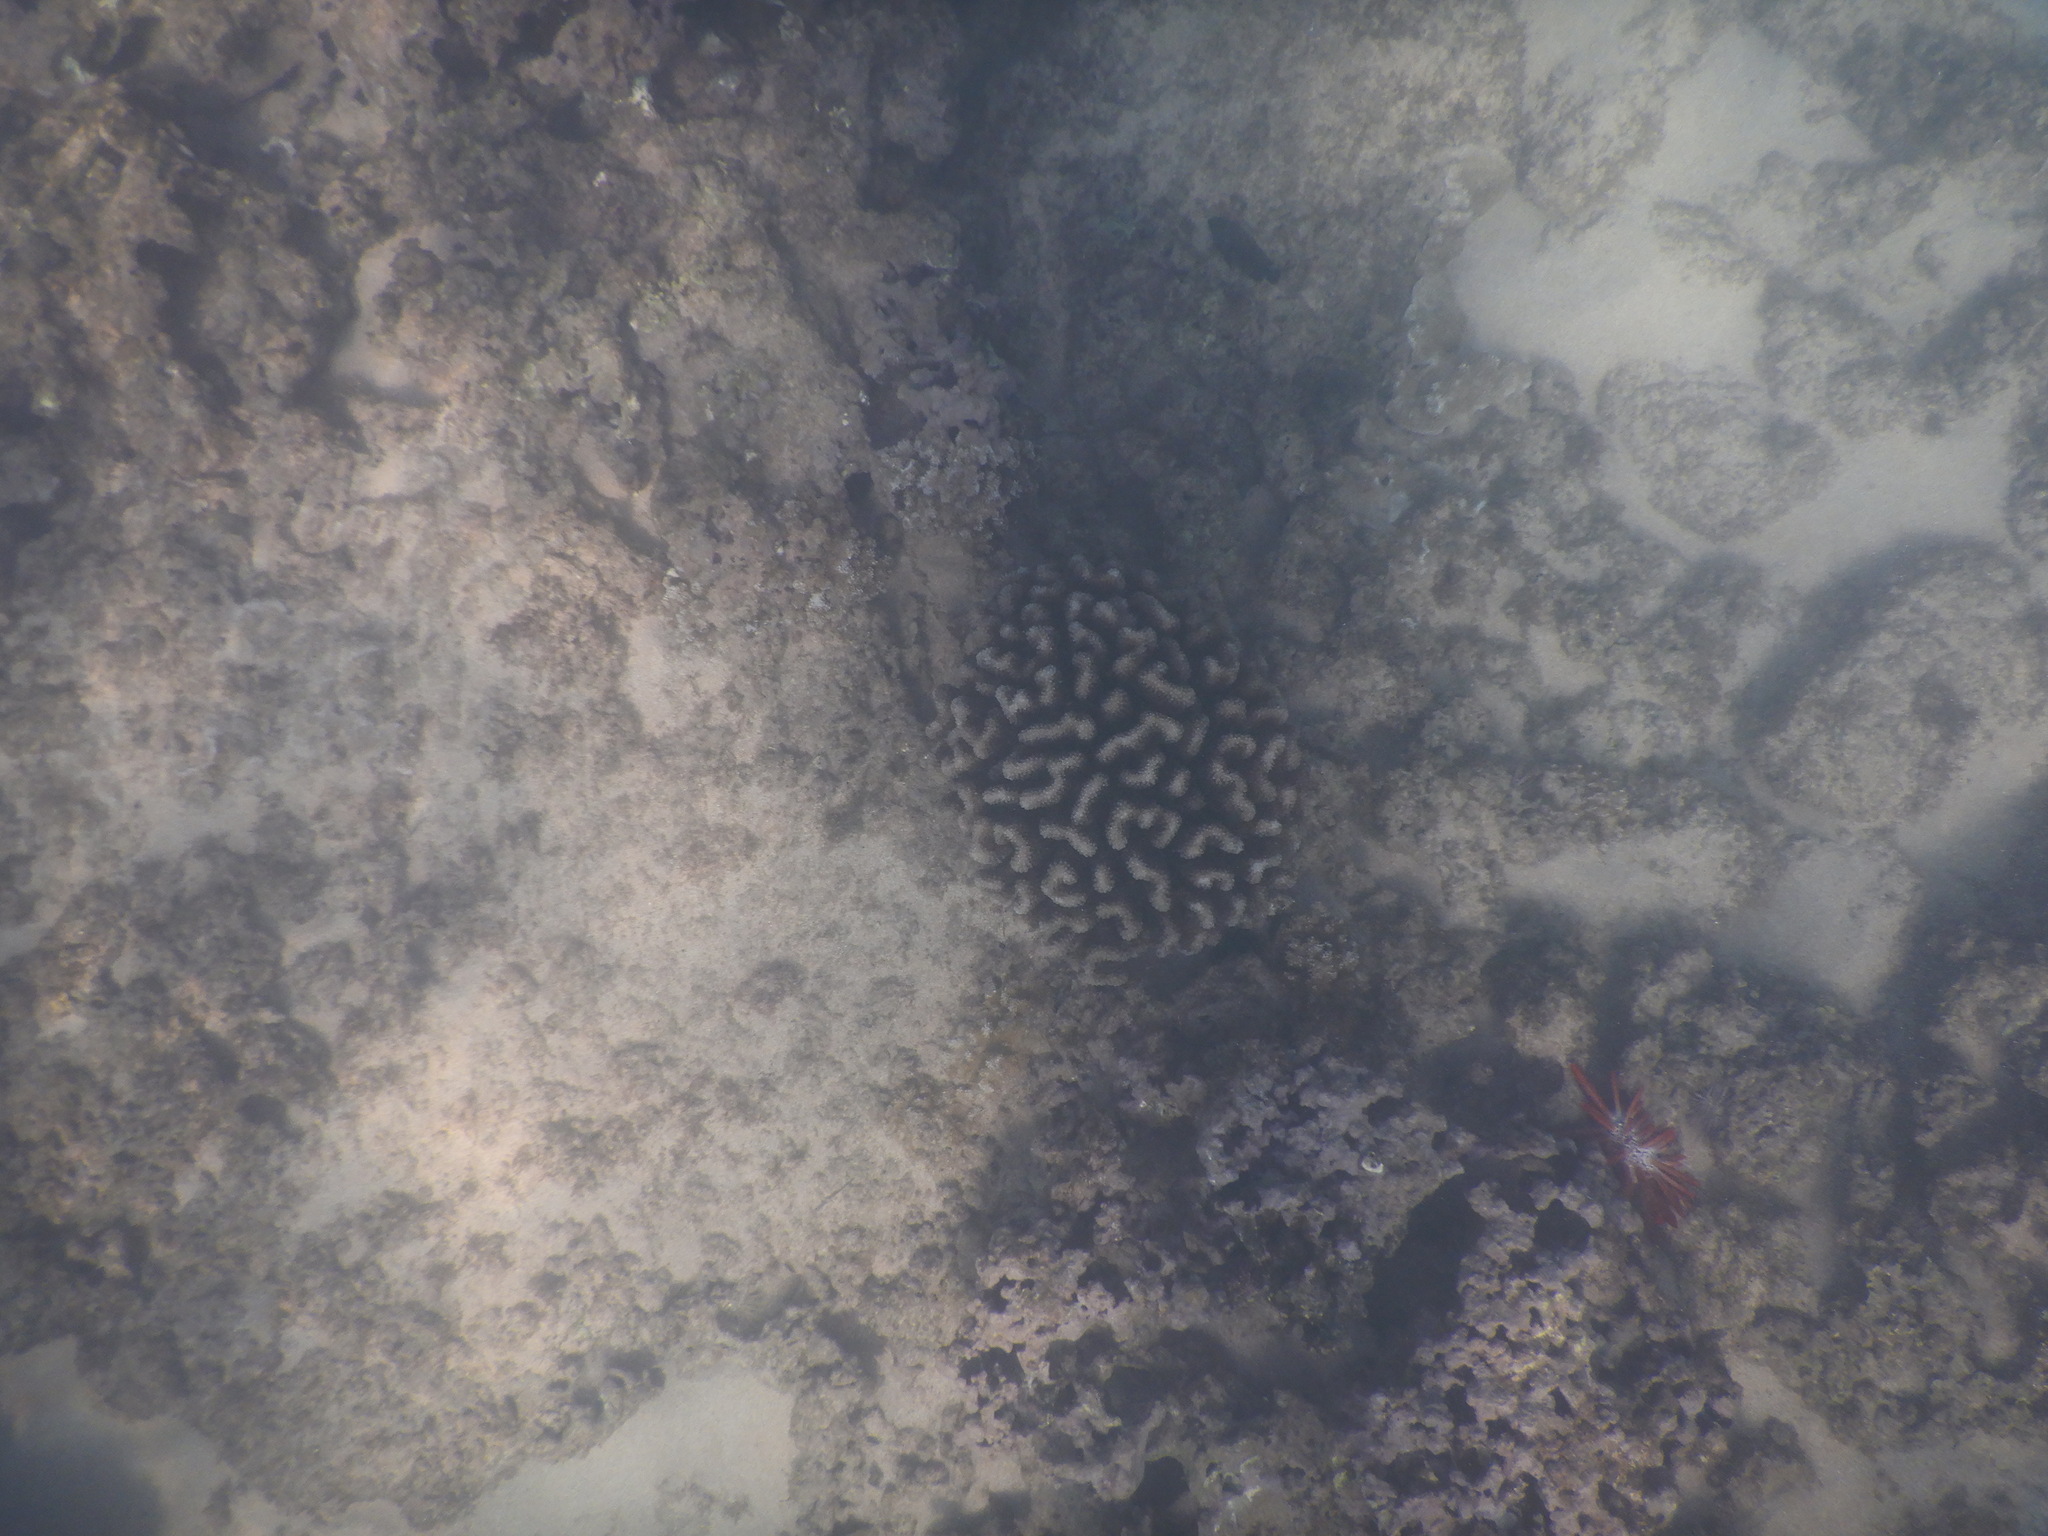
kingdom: Animalia
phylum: Cnidaria
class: Anthozoa
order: Scleractinia
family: Pocilloporidae
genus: Pocillopora
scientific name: Pocillopora meandrina
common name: Cauliflower coral
